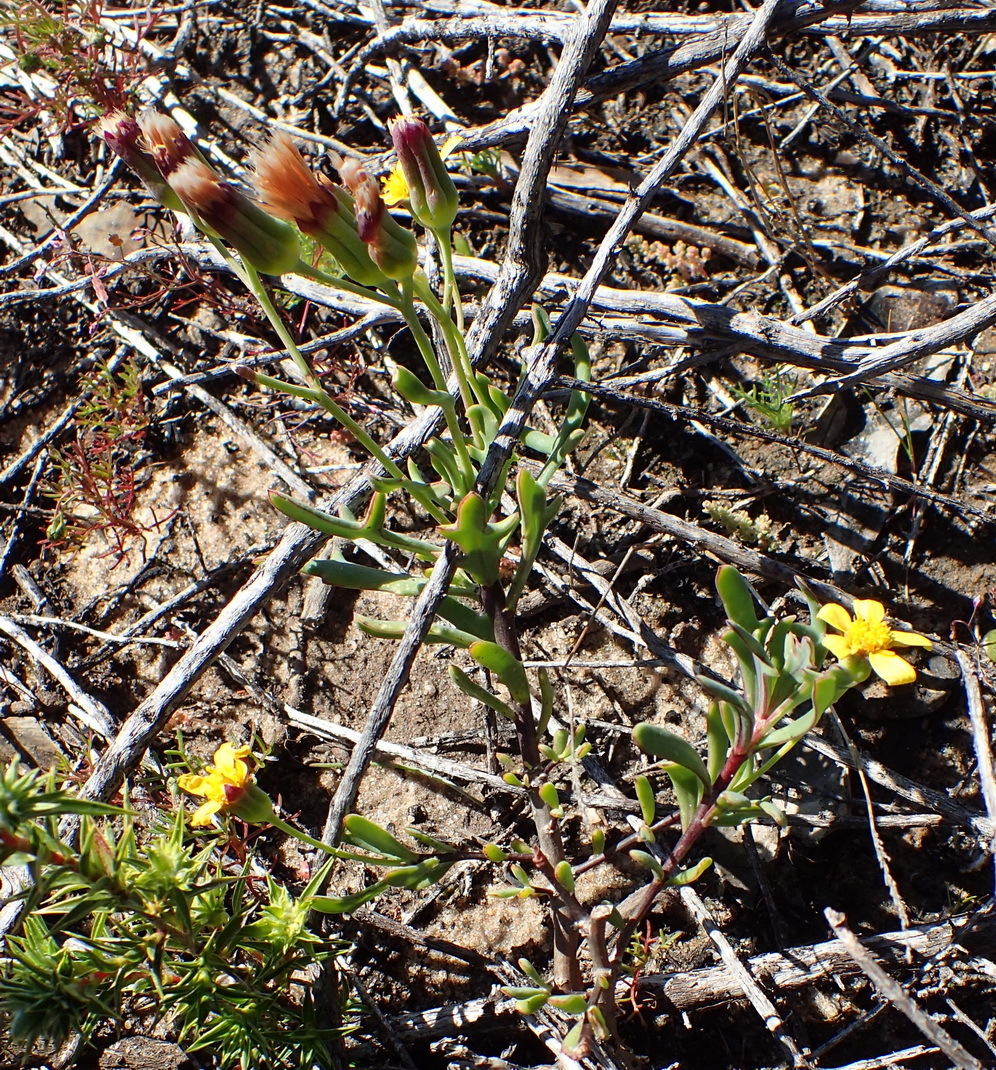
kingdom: Plantae
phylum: Tracheophyta
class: Magnoliopsida
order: Asterales
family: Asteraceae
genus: Othonna
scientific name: Othonna quercifolia
